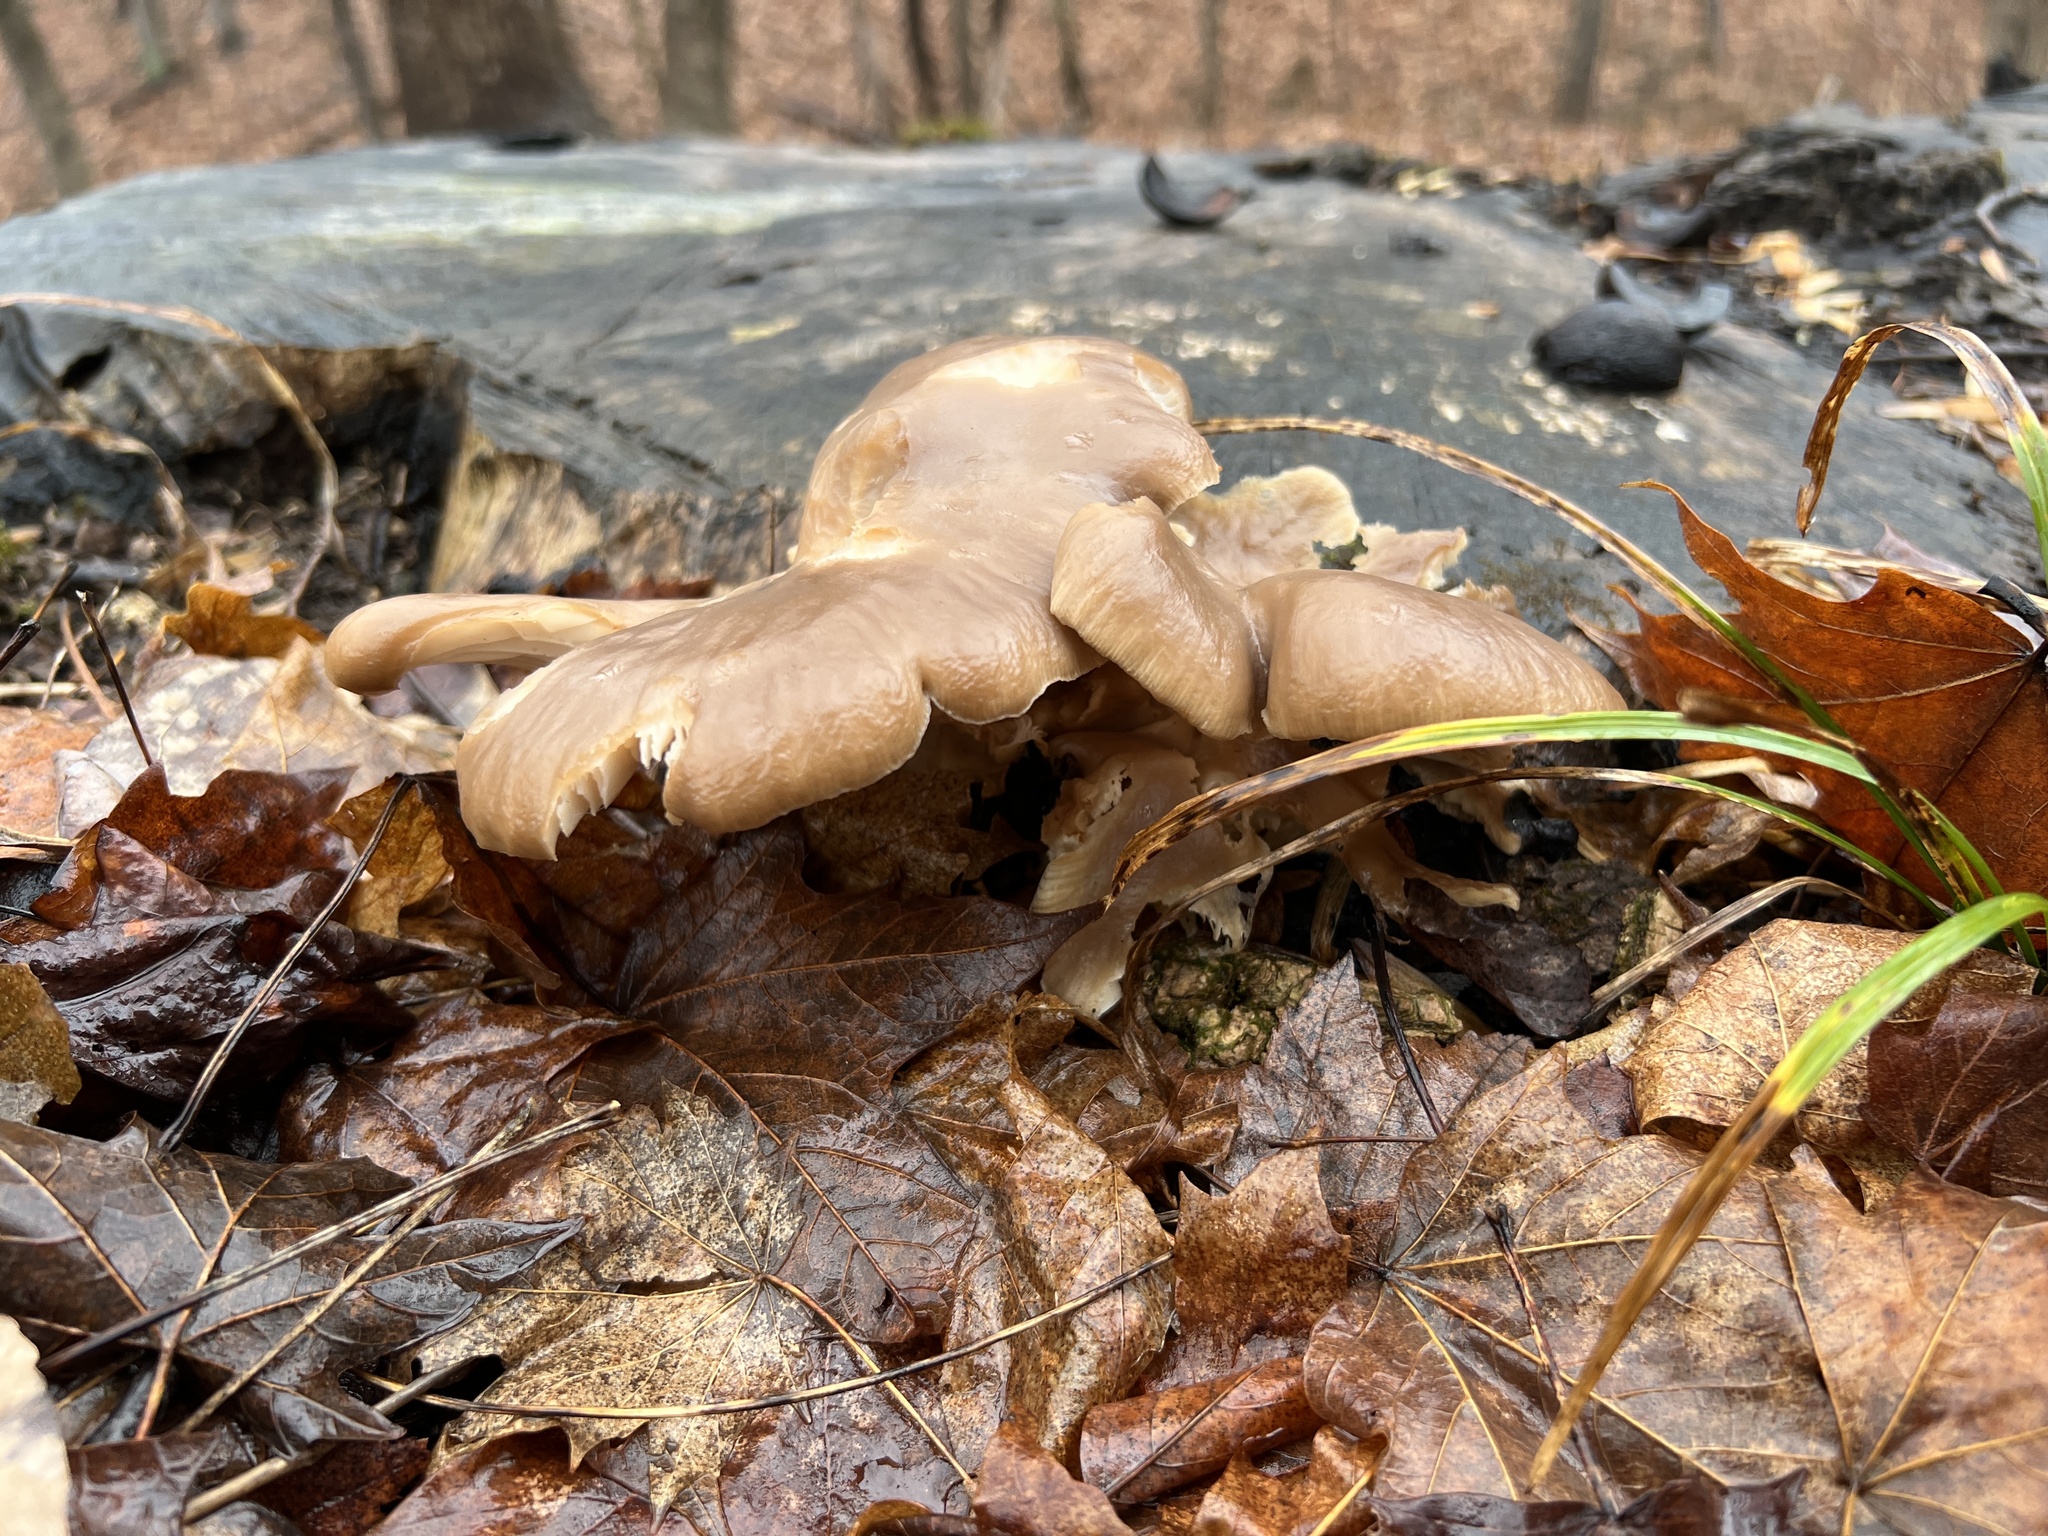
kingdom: Fungi
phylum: Basidiomycota
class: Agaricomycetes
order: Agaricales
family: Pleurotaceae
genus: Pleurotus
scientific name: Pleurotus ostreatus
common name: Oyster mushroom
